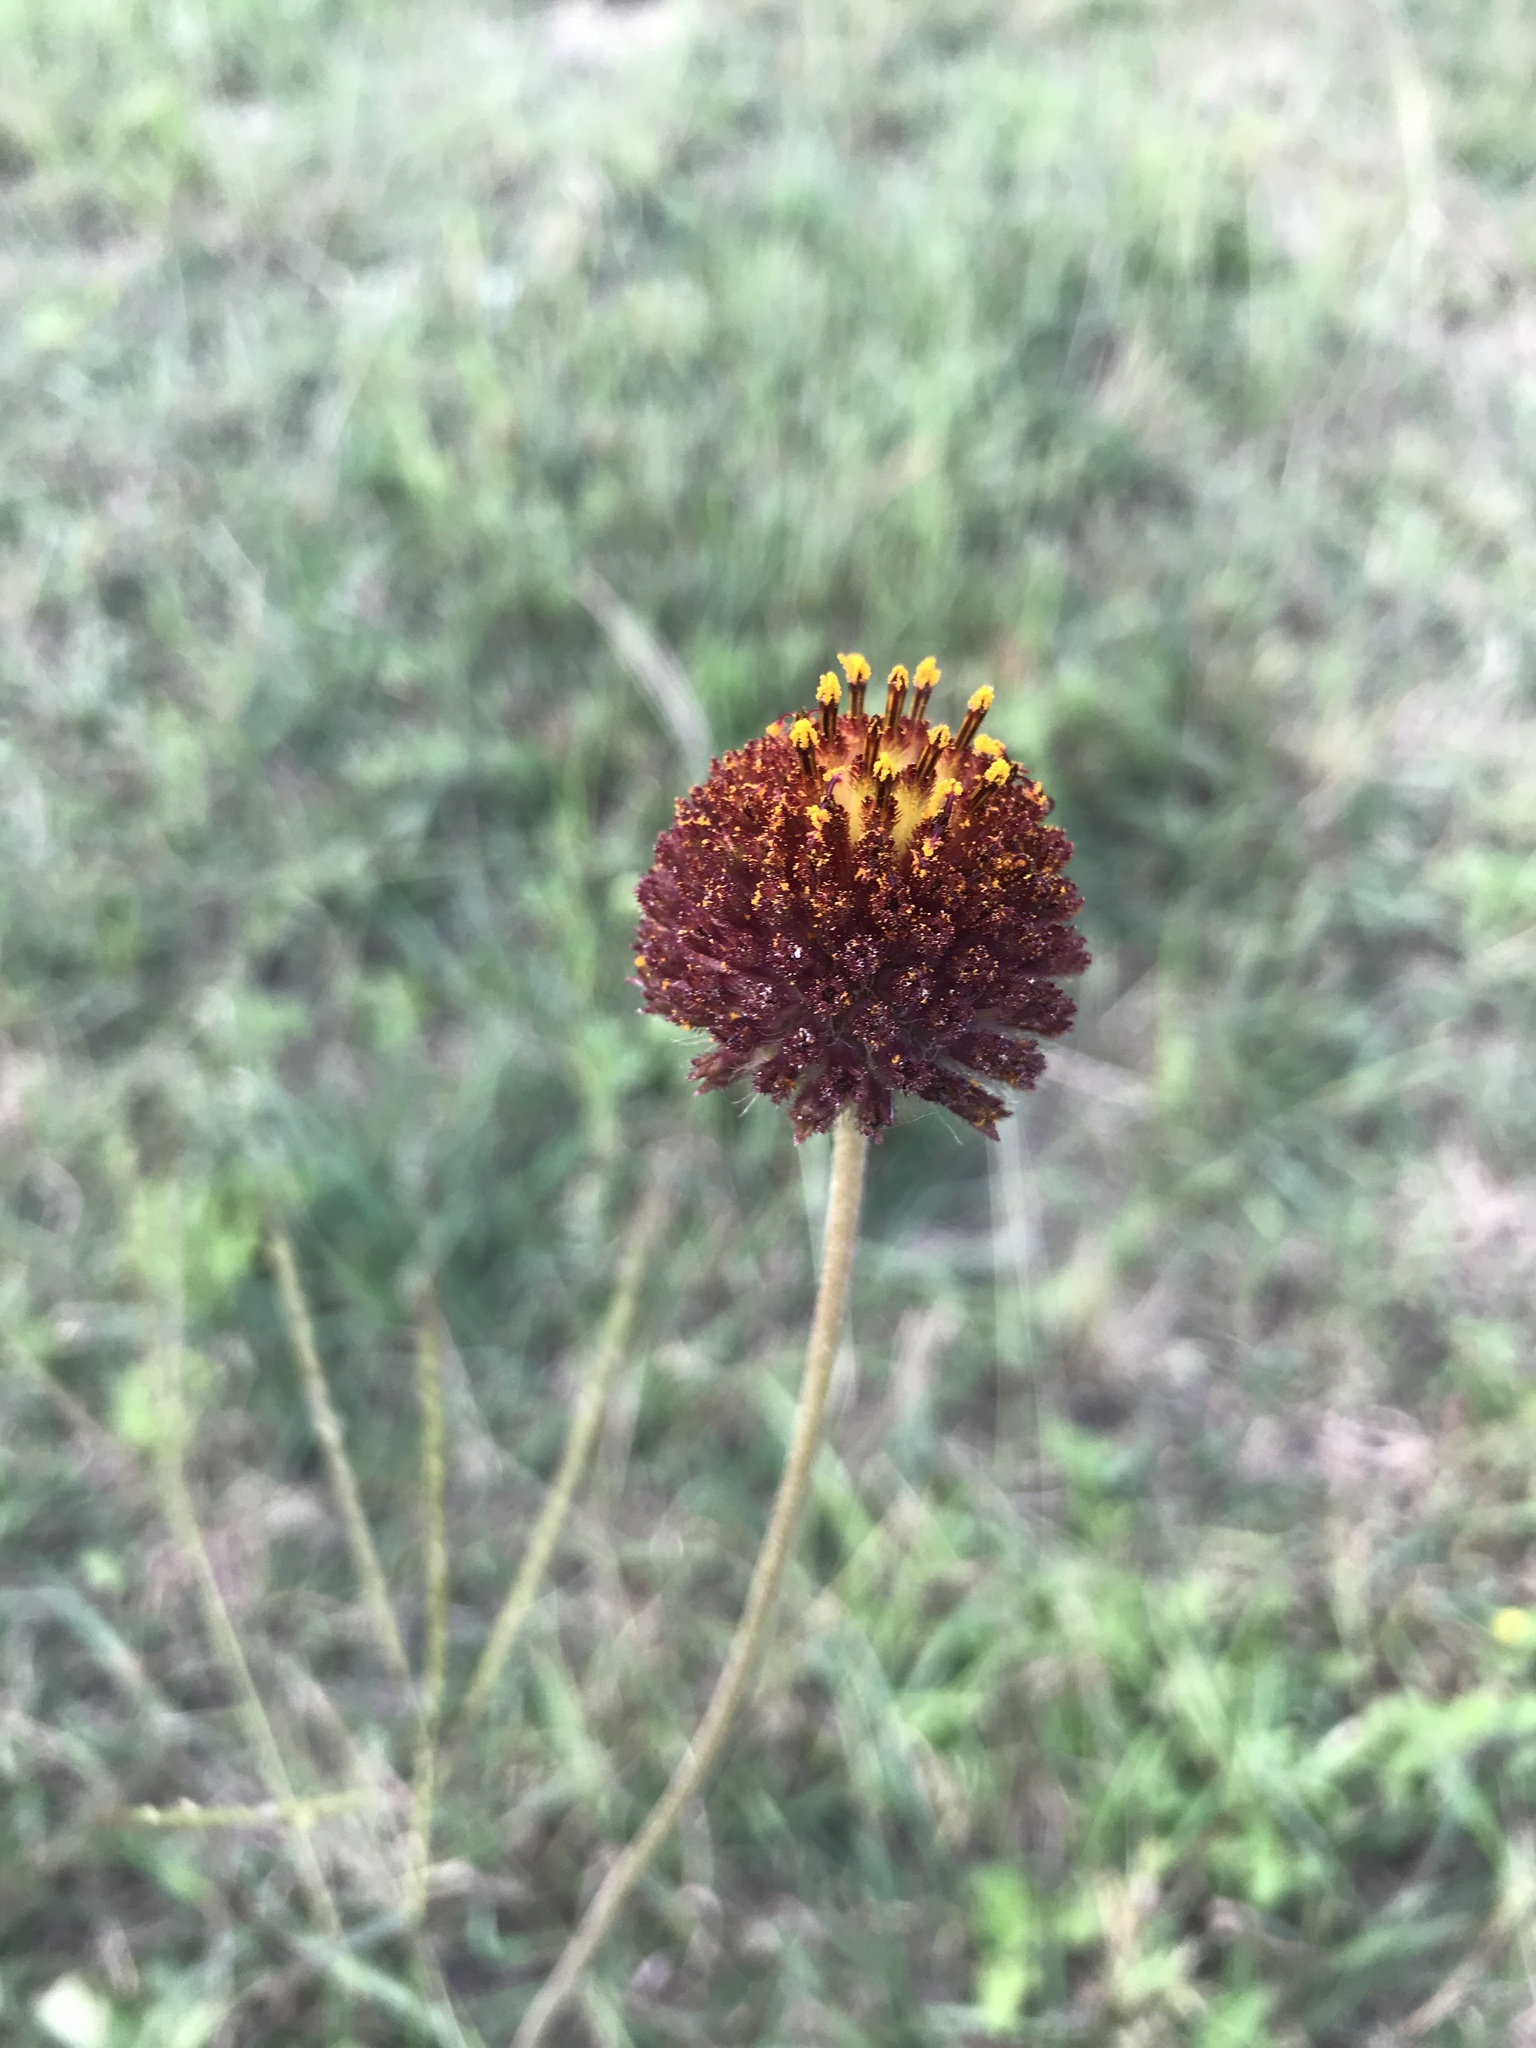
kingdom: Plantae
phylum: Tracheophyta
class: Magnoliopsida
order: Asterales
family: Asteraceae
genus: Gaillardia
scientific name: Gaillardia suavis
